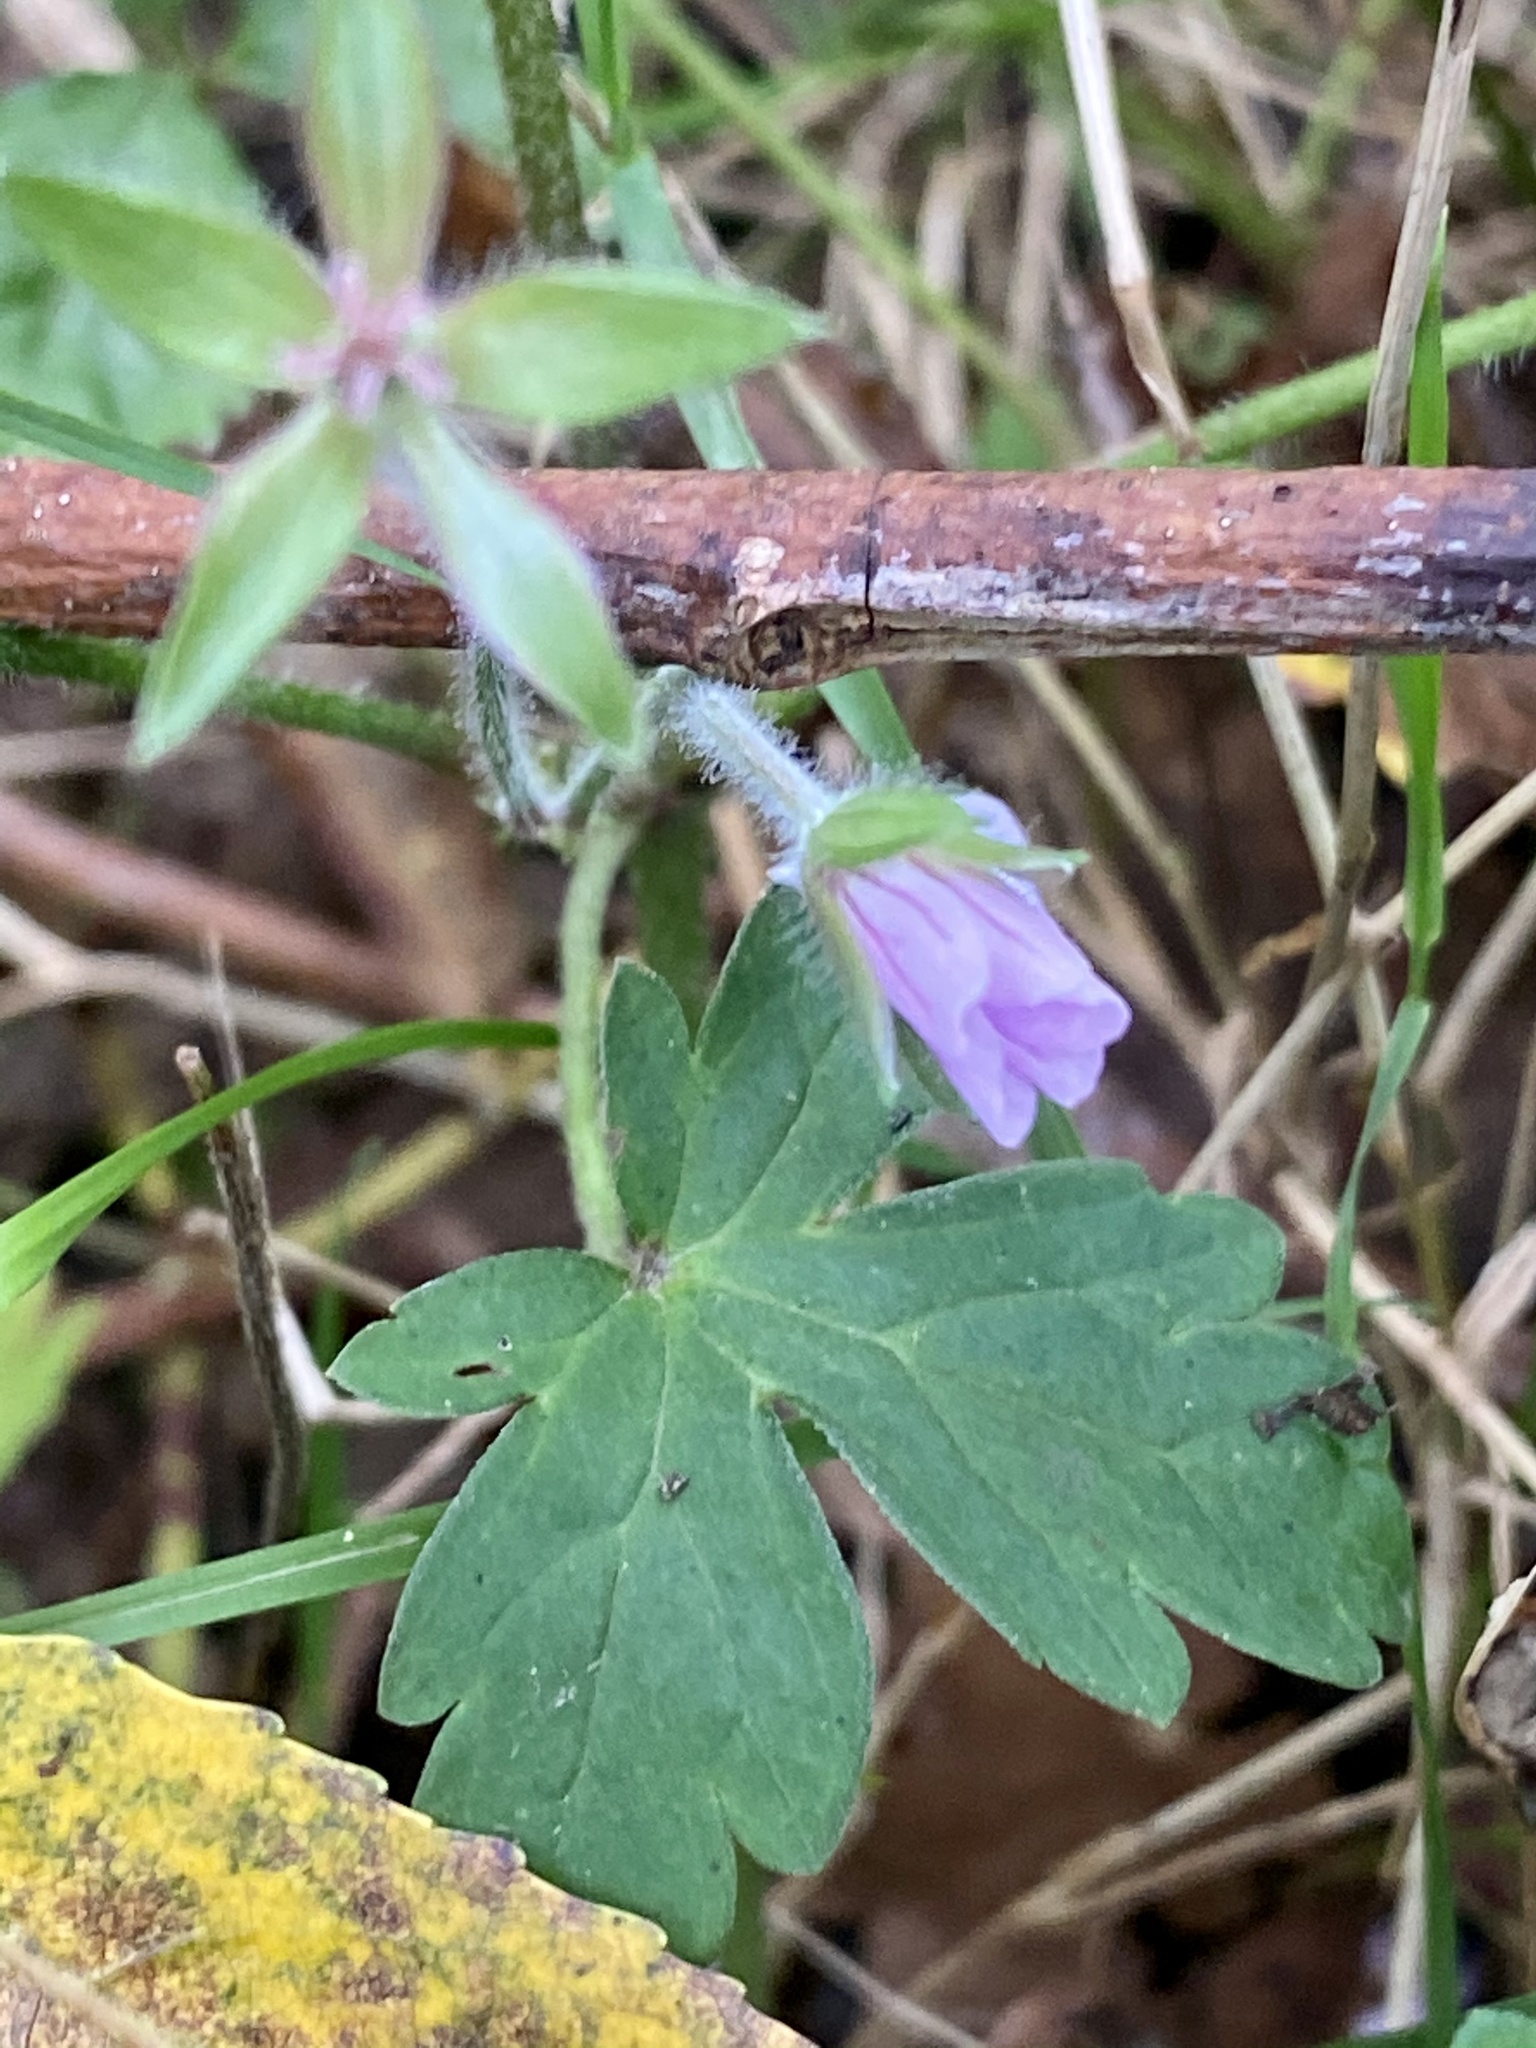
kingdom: Plantae
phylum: Tracheophyta
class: Magnoliopsida
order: Geraniales
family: Geraniaceae
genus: Geranium
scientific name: Geranium thunbergii
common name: Dewdrop crane's-bill
